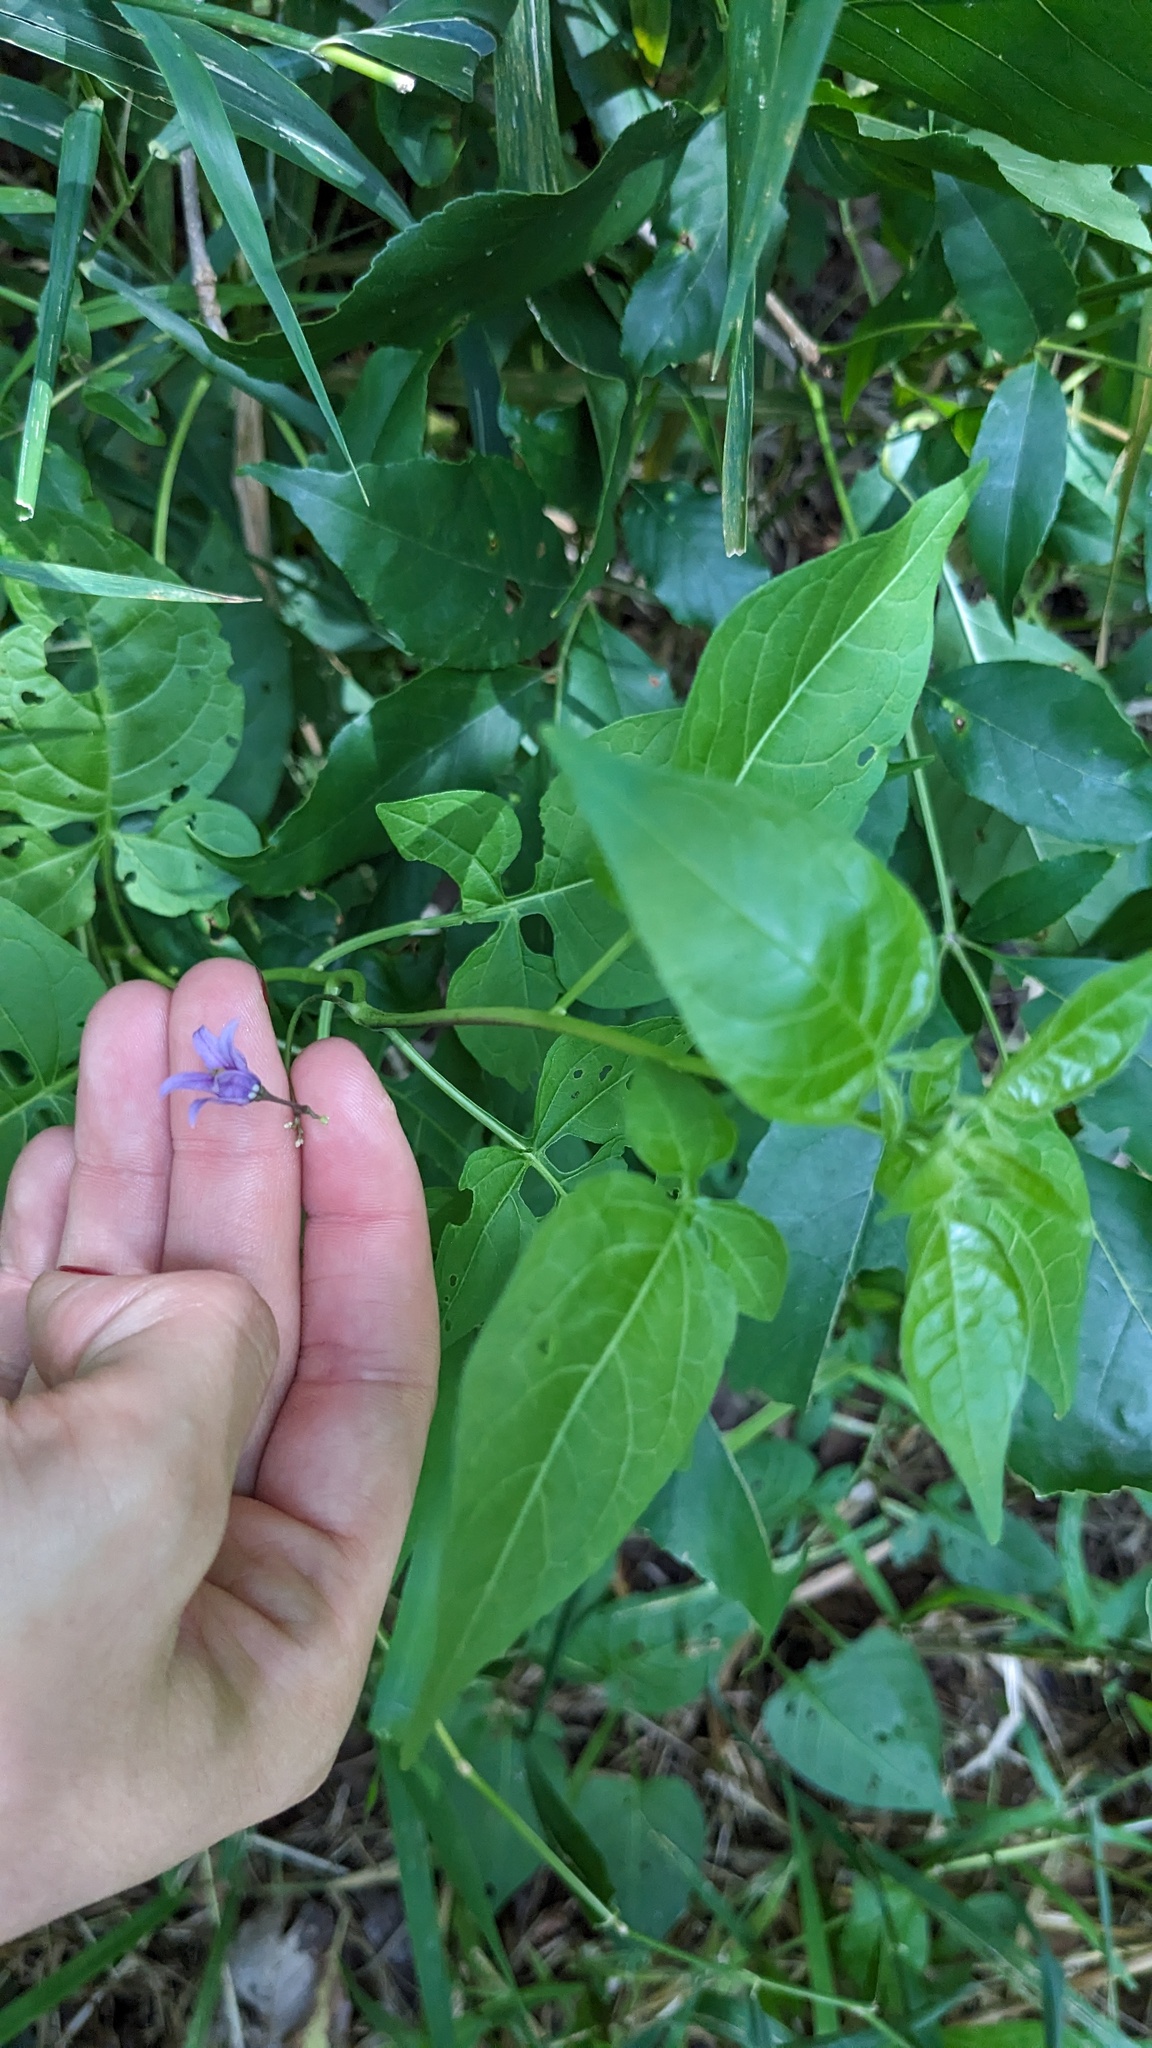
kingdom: Plantae
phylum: Tracheophyta
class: Magnoliopsida
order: Solanales
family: Solanaceae
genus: Solanum
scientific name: Solanum dulcamara
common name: Climbing nightshade
